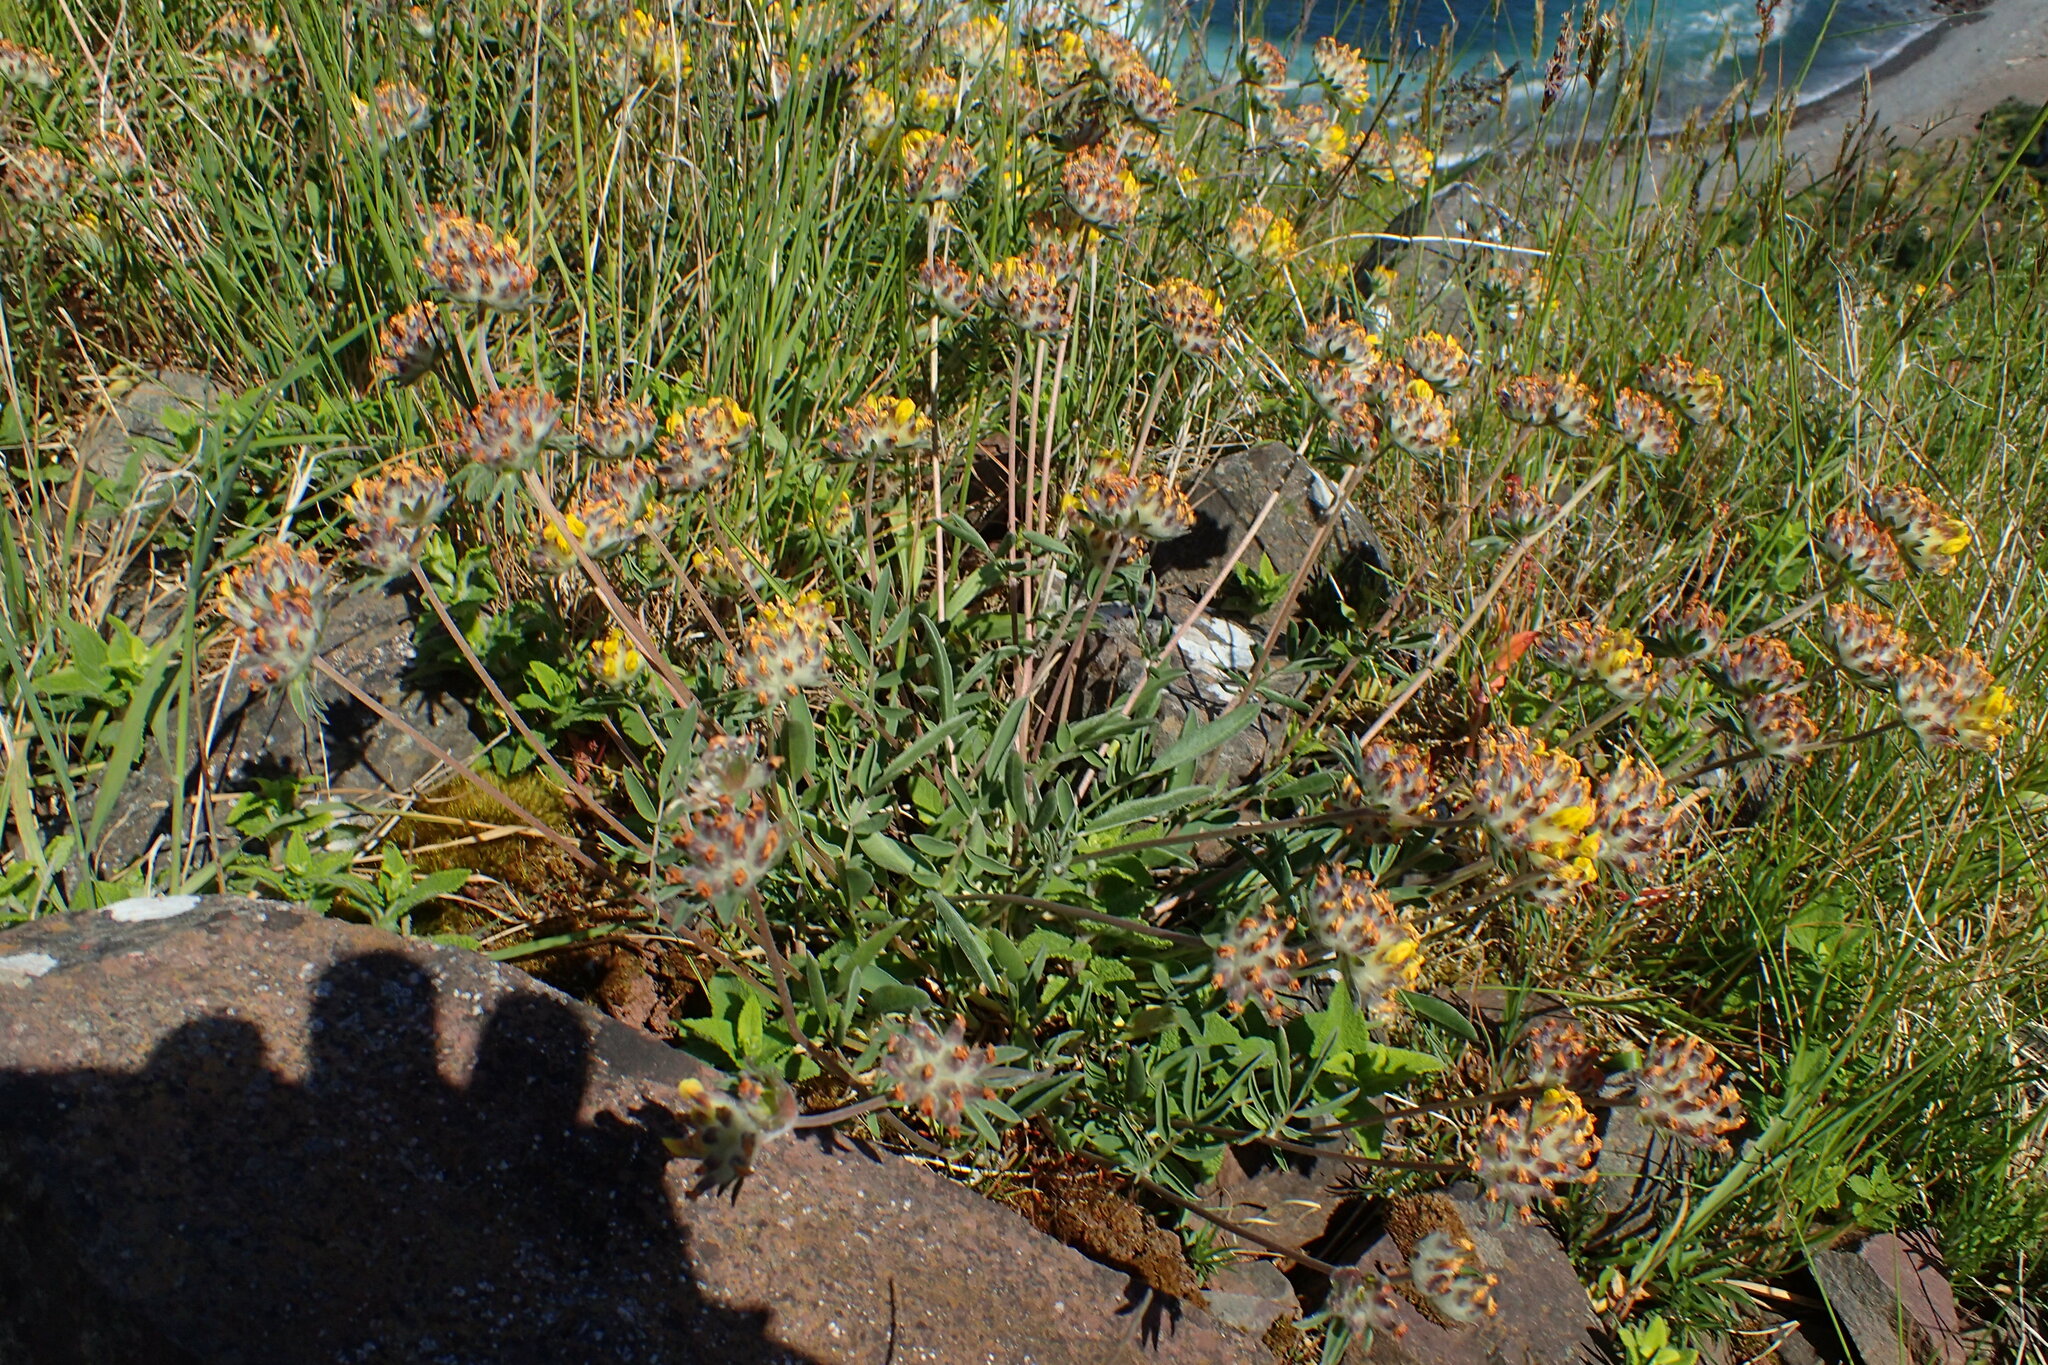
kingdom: Plantae
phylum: Tracheophyta
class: Magnoliopsida
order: Fabales
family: Fabaceae
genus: Anthyllis
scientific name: Anthyllis vulneraria
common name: Kidney vetch
